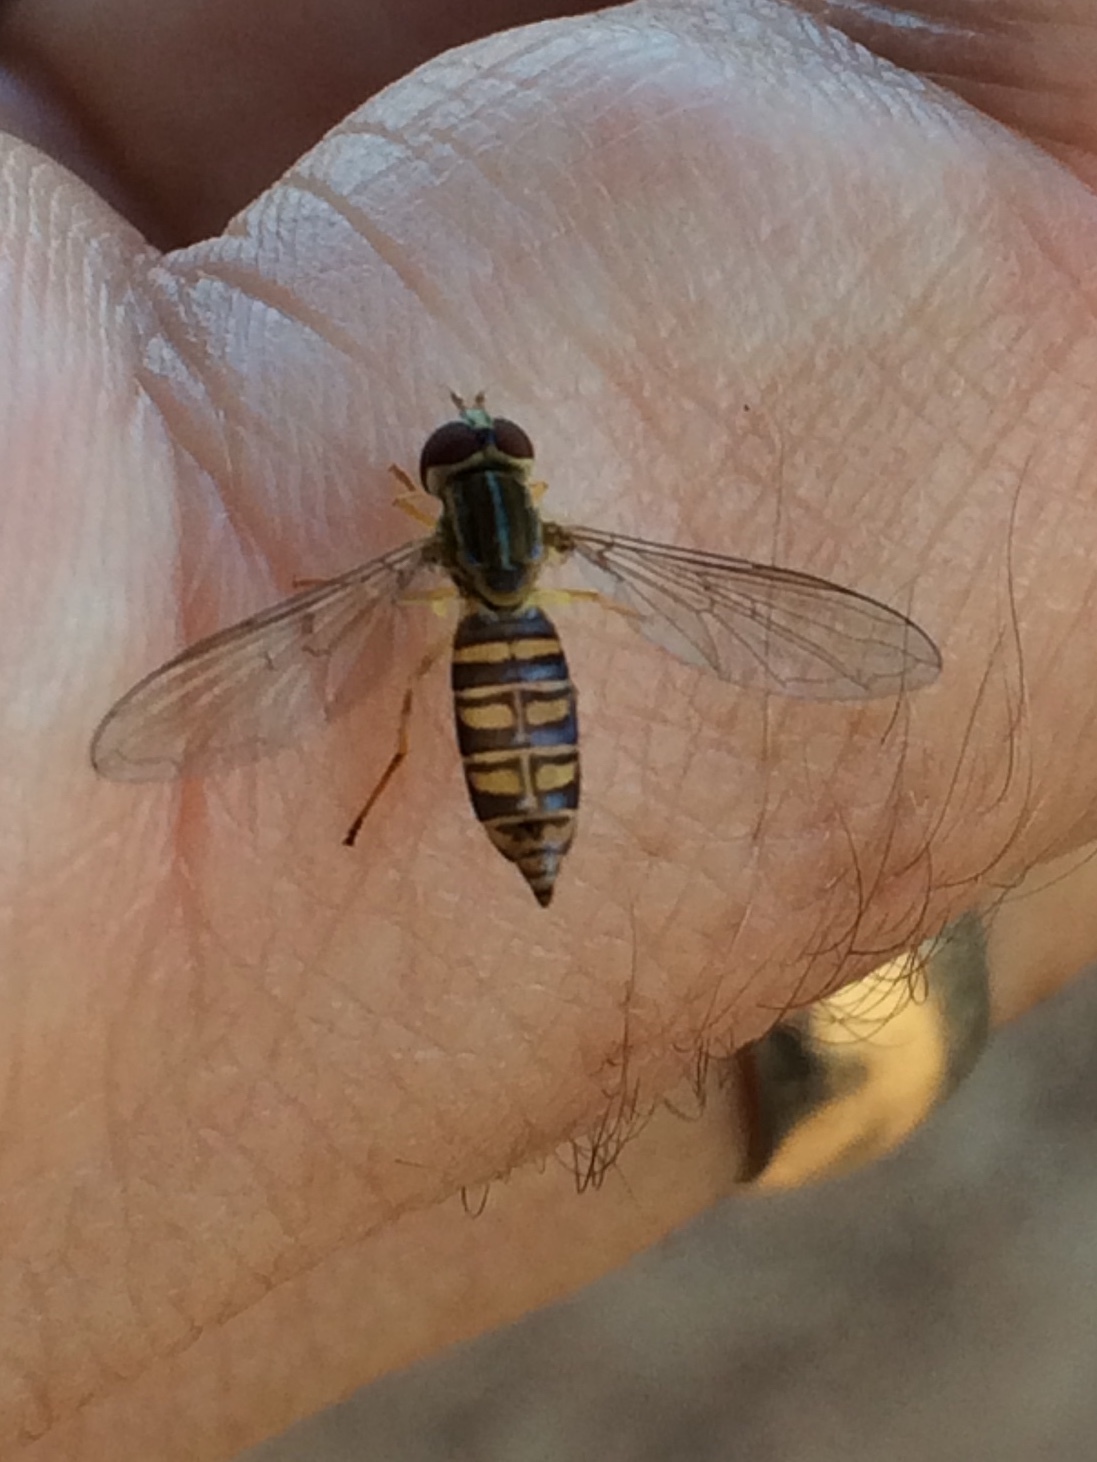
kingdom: Animalia
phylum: Arthropoda
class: Insecta
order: Diptera
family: Syrphidae
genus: Toxomerus
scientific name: Toxomerus politus
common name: Maize calligrapher
